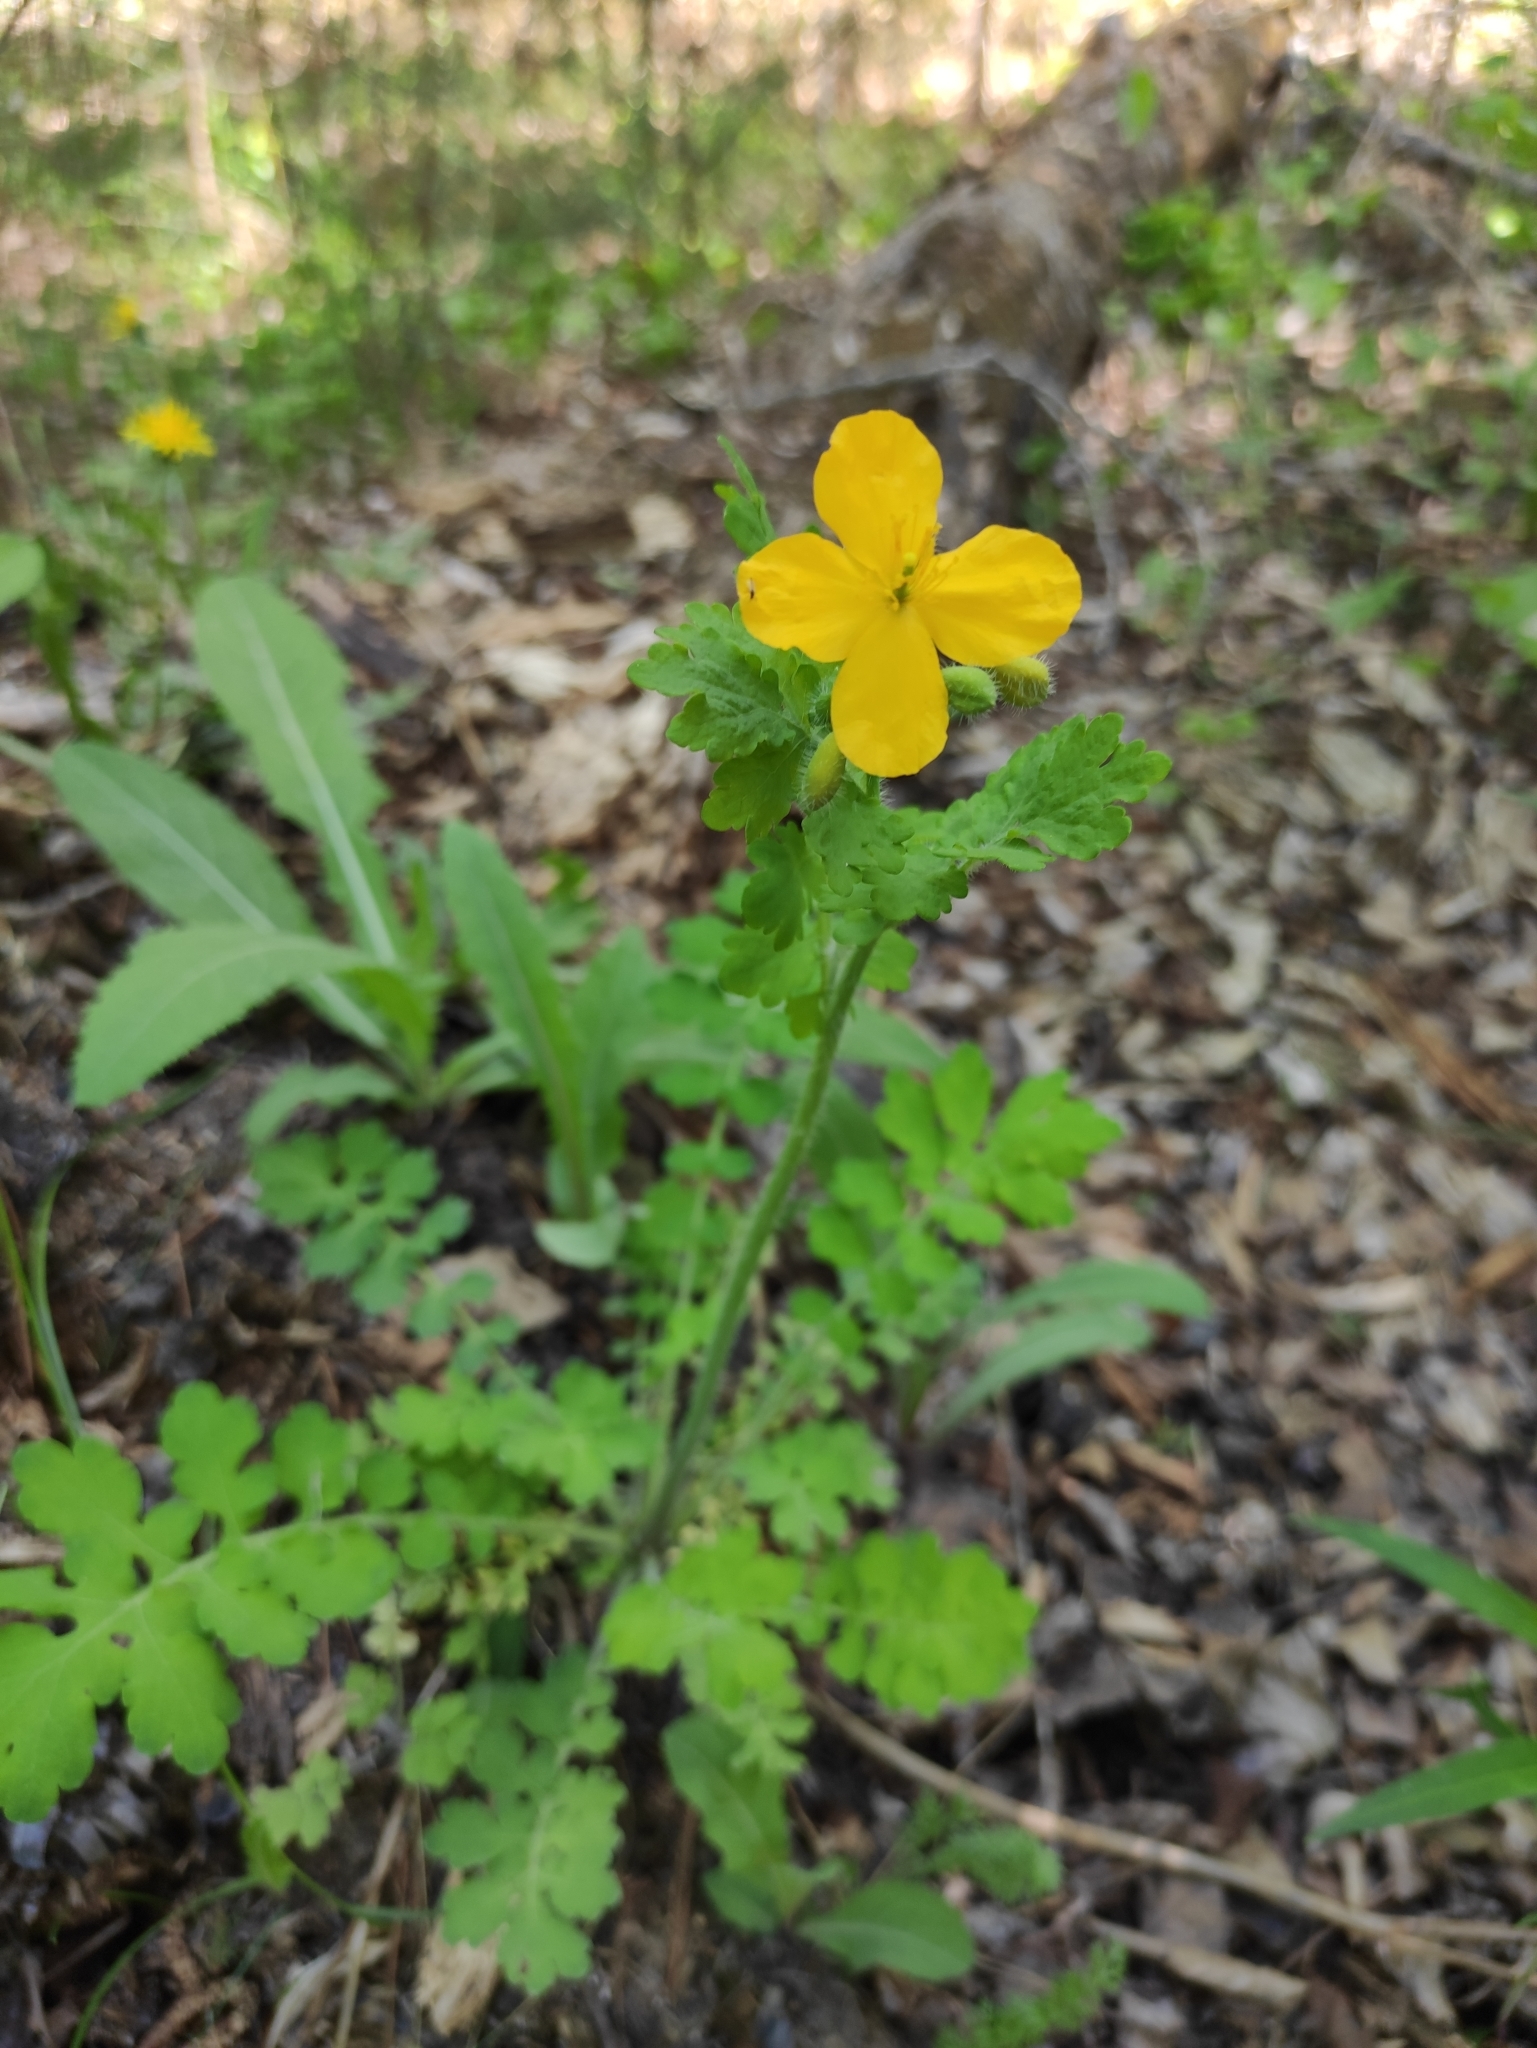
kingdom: Plantae
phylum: Tracheophyta
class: Magnoliopsida
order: Ranunculales
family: Papaveraceae
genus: Chelidonium
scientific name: Chelidonium majus
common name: Greater celandine
